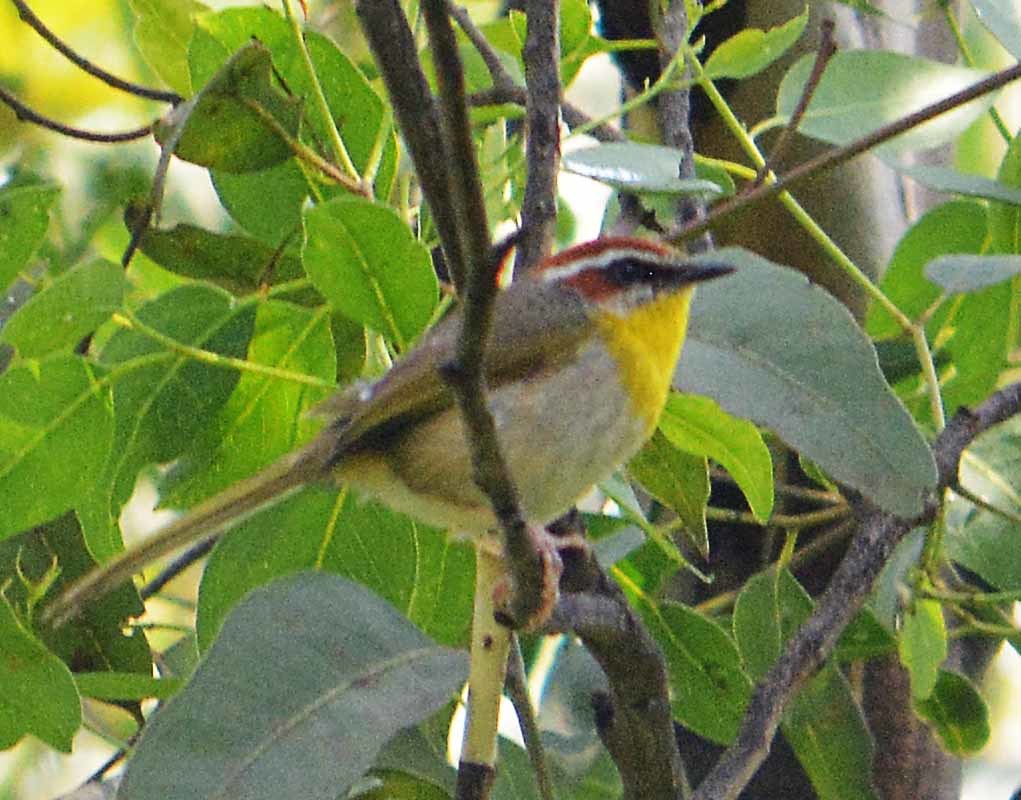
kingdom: Animalia
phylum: Chordata
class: Aves
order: Passeriformes
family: Parulidae
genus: Basileuterus
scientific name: Basileuterus rufifrons
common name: Rufous-capped warbler
